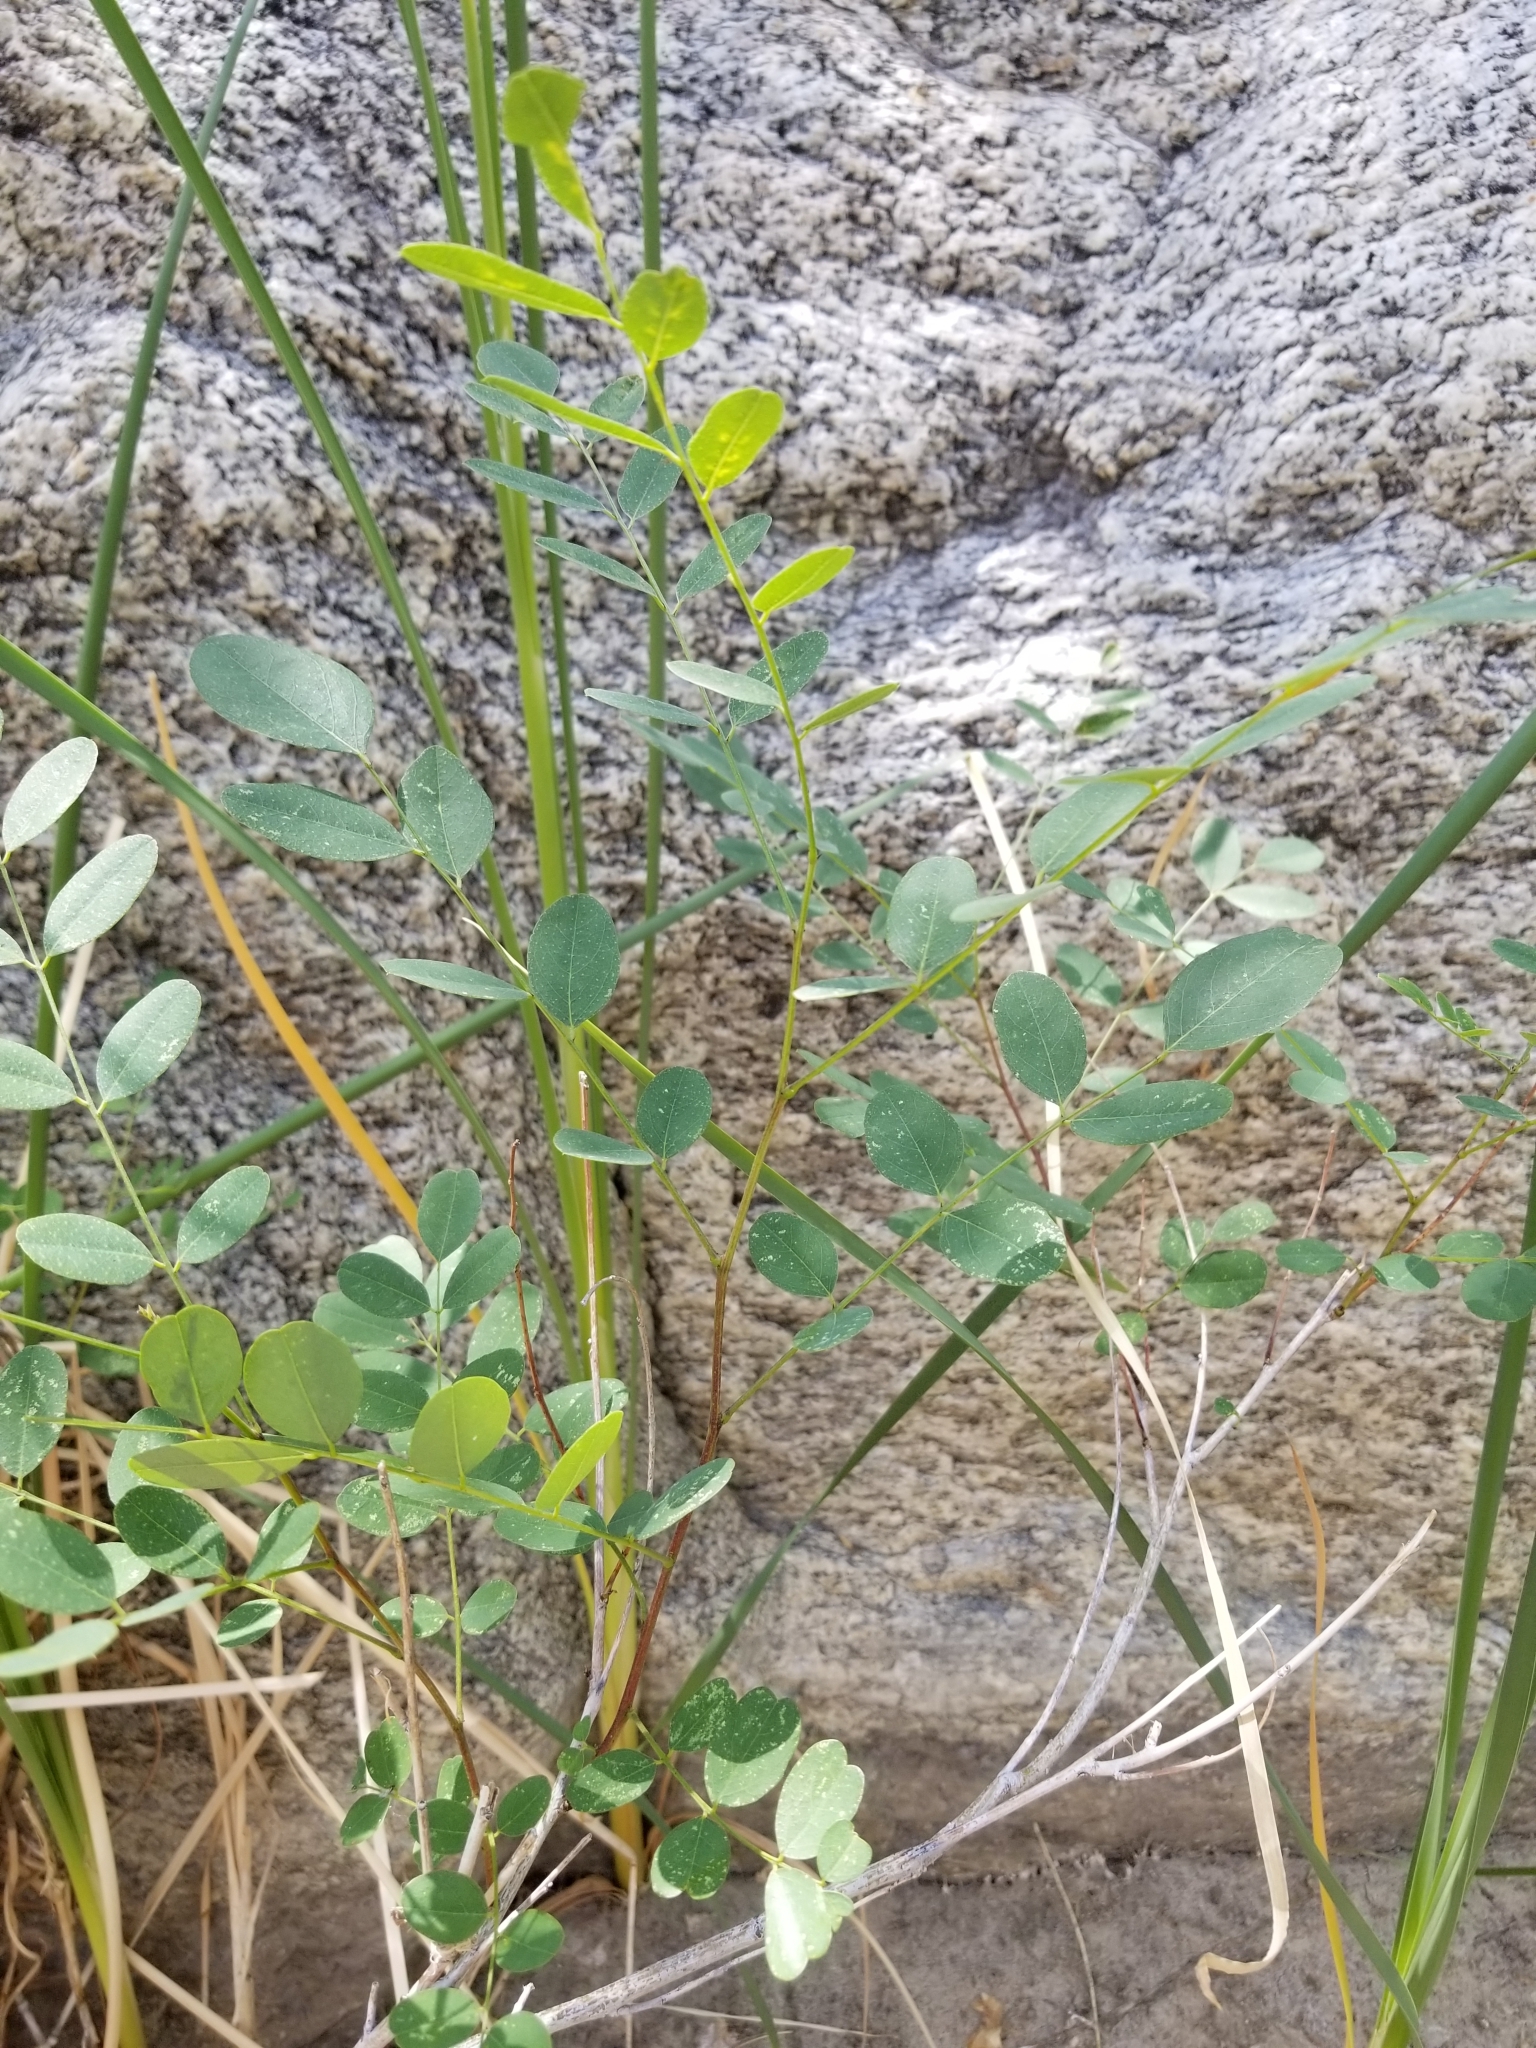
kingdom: Plantae
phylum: Tracheophyta
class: Magnoliopsida
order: Fabales
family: Fabaceae
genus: Amorpha
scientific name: Amorpha fruticosa
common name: False indigo
